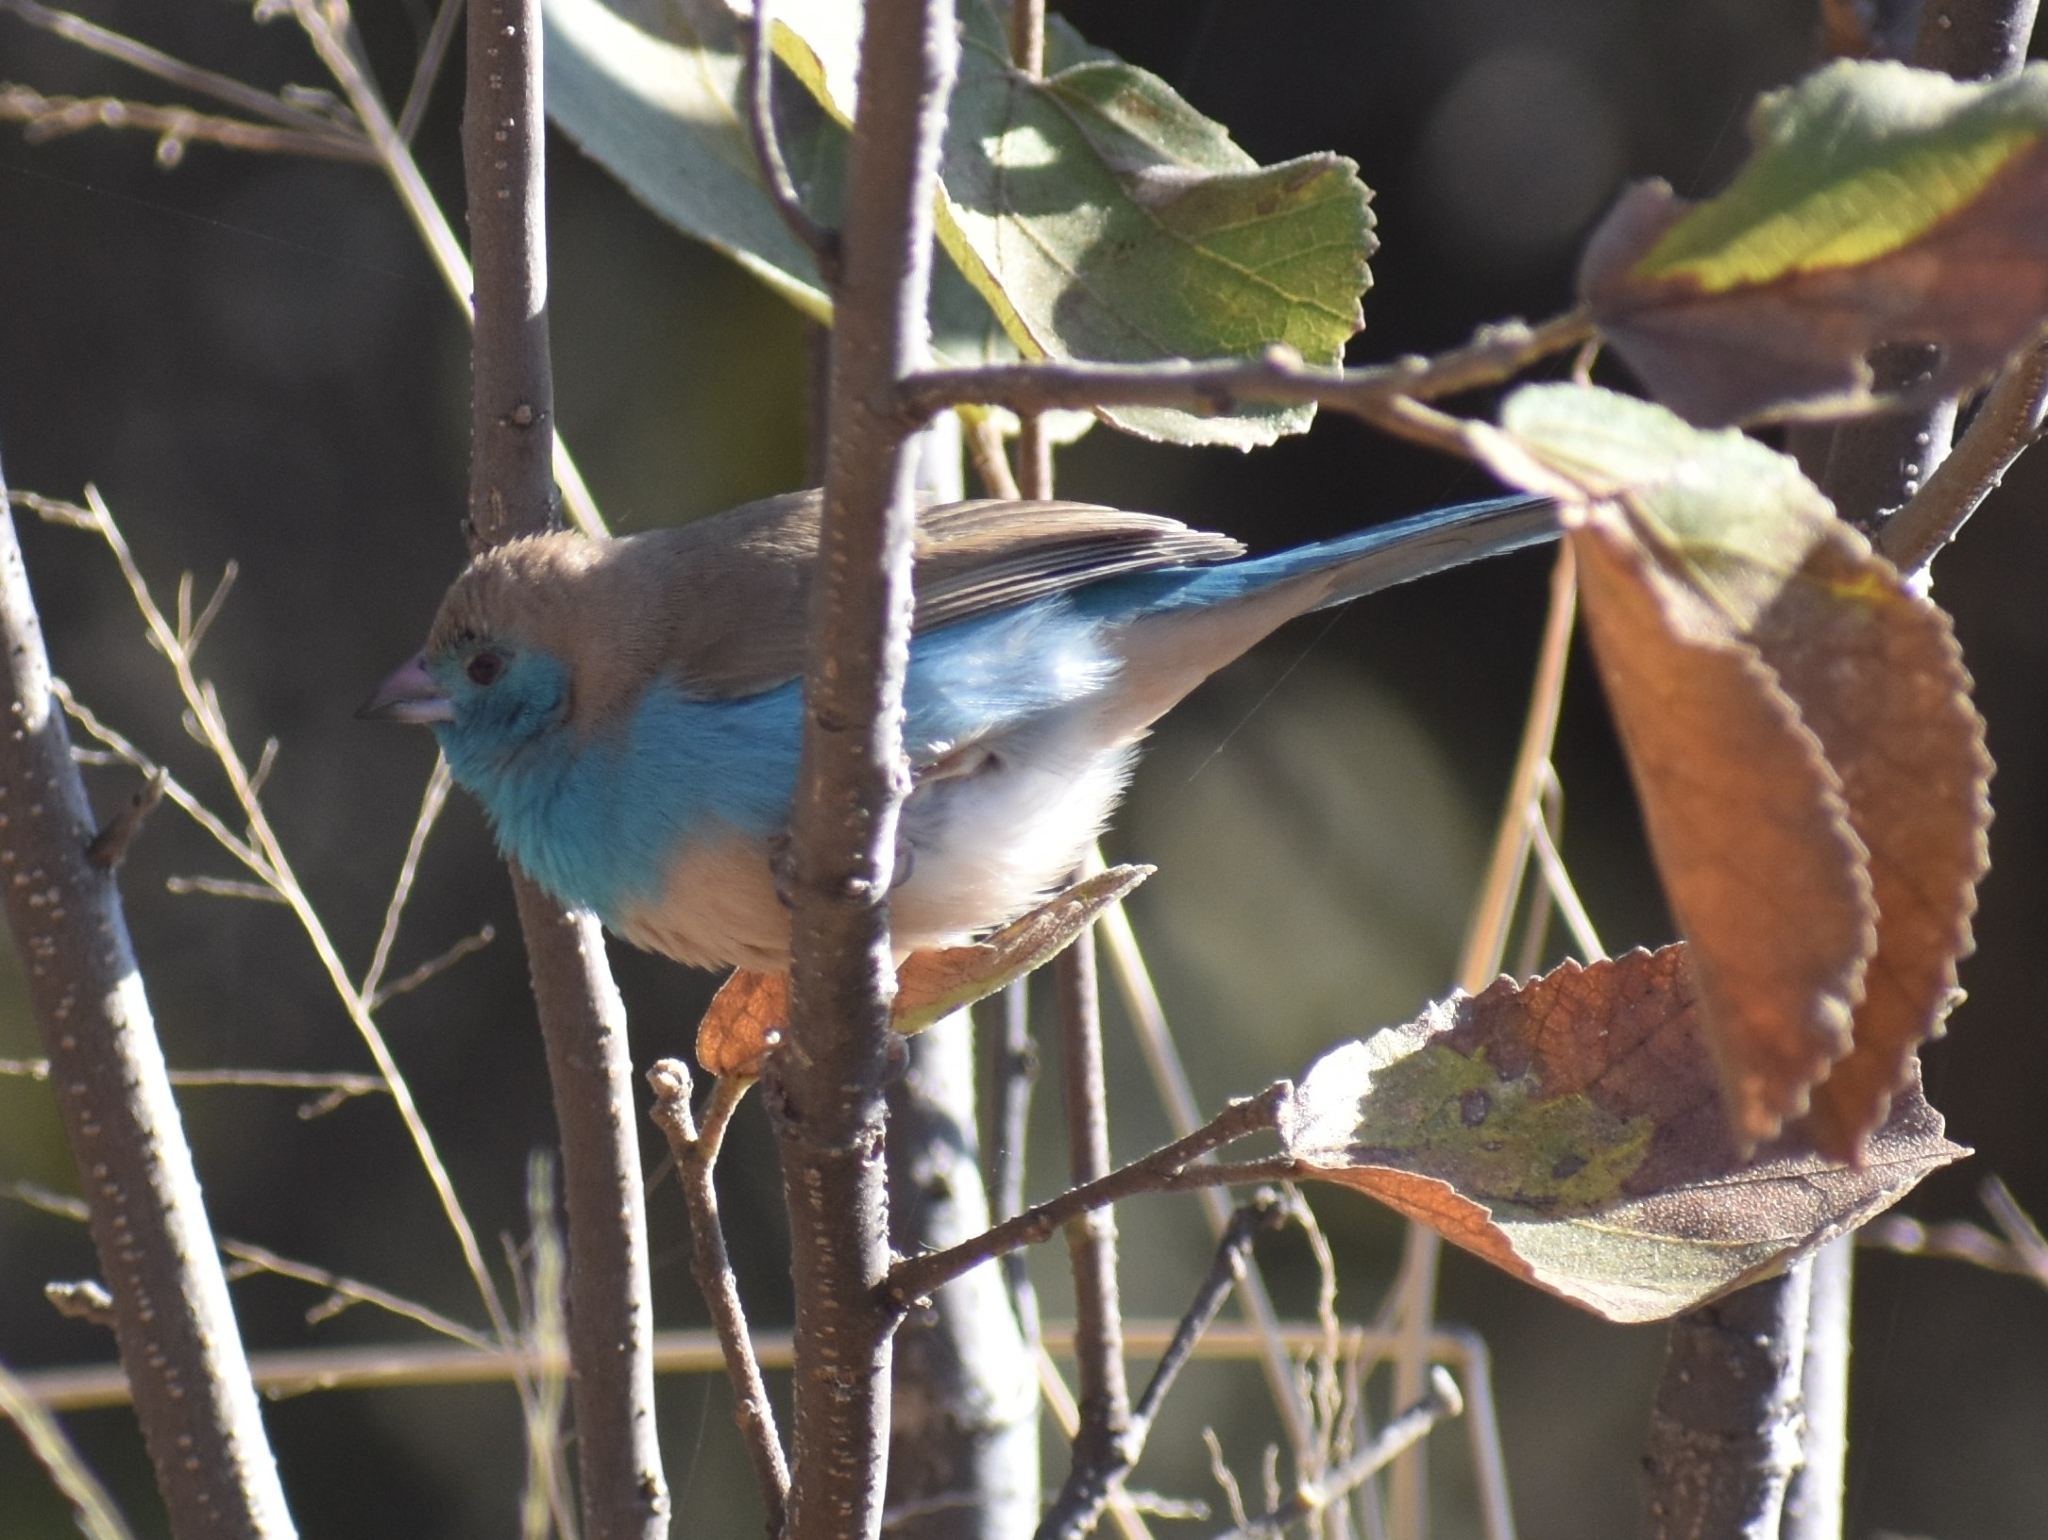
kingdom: Animalia
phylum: Chordata
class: Aves
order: Passeriformes
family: Estrildidae
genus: Uraeginthus
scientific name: Uraeginthus angolensis
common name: Blue waxbill
